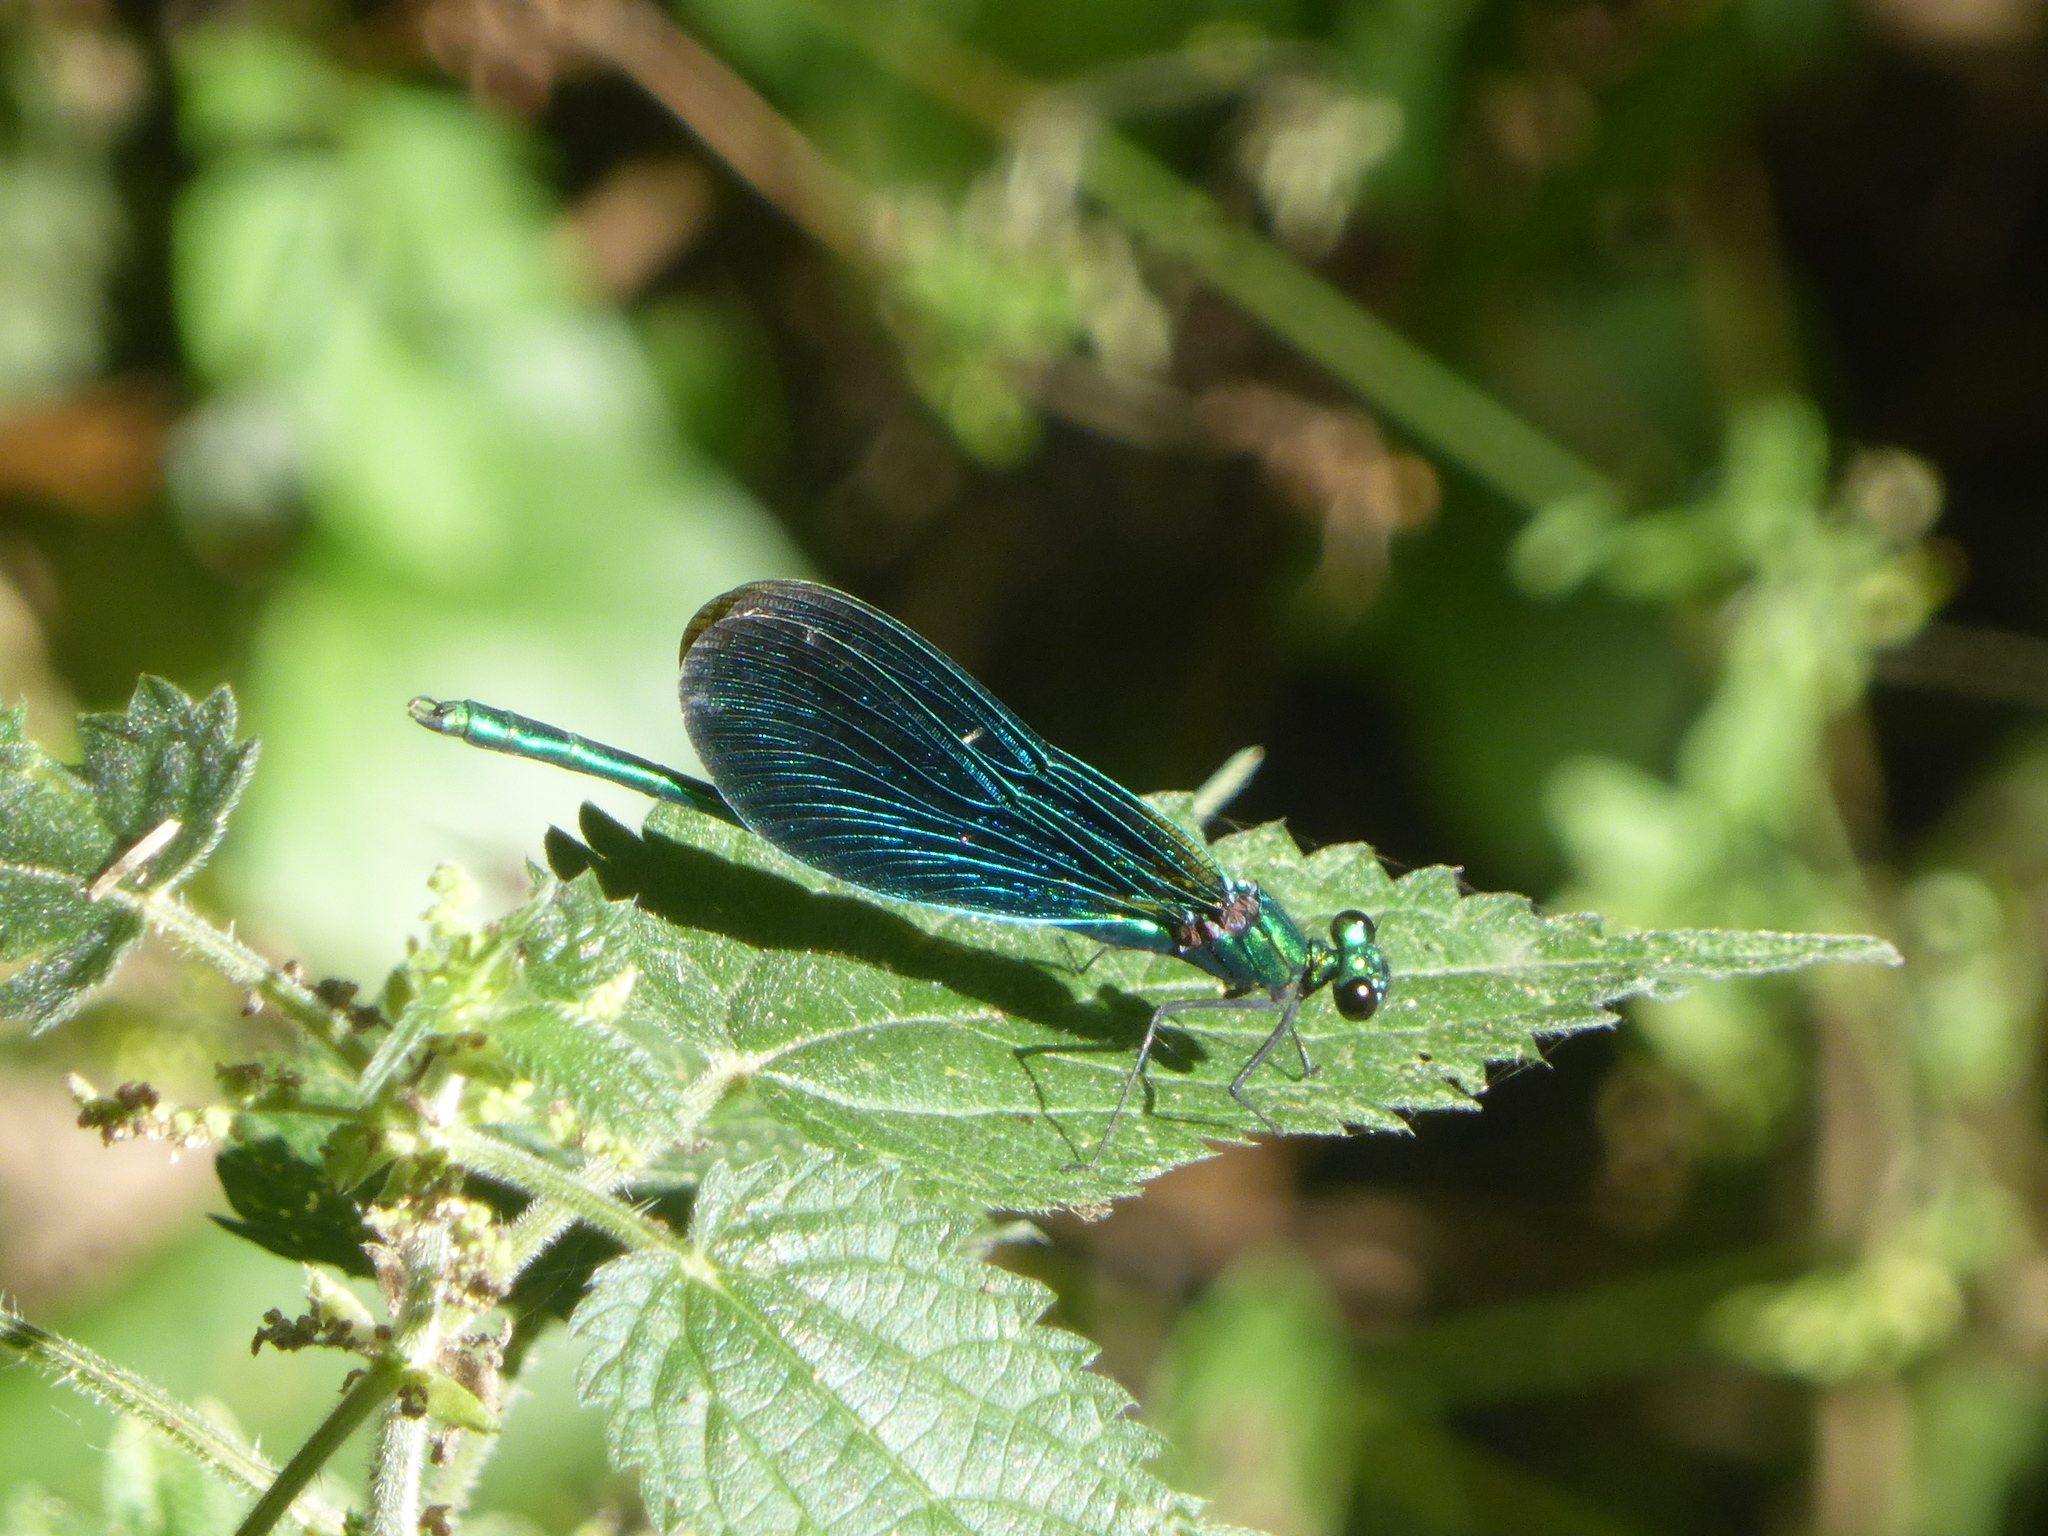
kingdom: Animalia
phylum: Arthropoda
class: Insecta
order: Odonata
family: Calopterygidae
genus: Calopteryx
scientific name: Calopteryx virgo
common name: Beautiful demoiselle
